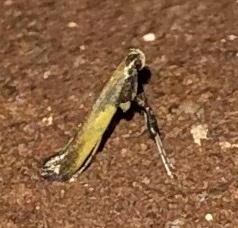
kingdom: Animalia
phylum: Arthropoda
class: Insecta
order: Lepidoptera
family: Gracillariidae
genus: Caloptilia
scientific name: Caloptilia azaleella
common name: Azalea leafminer
